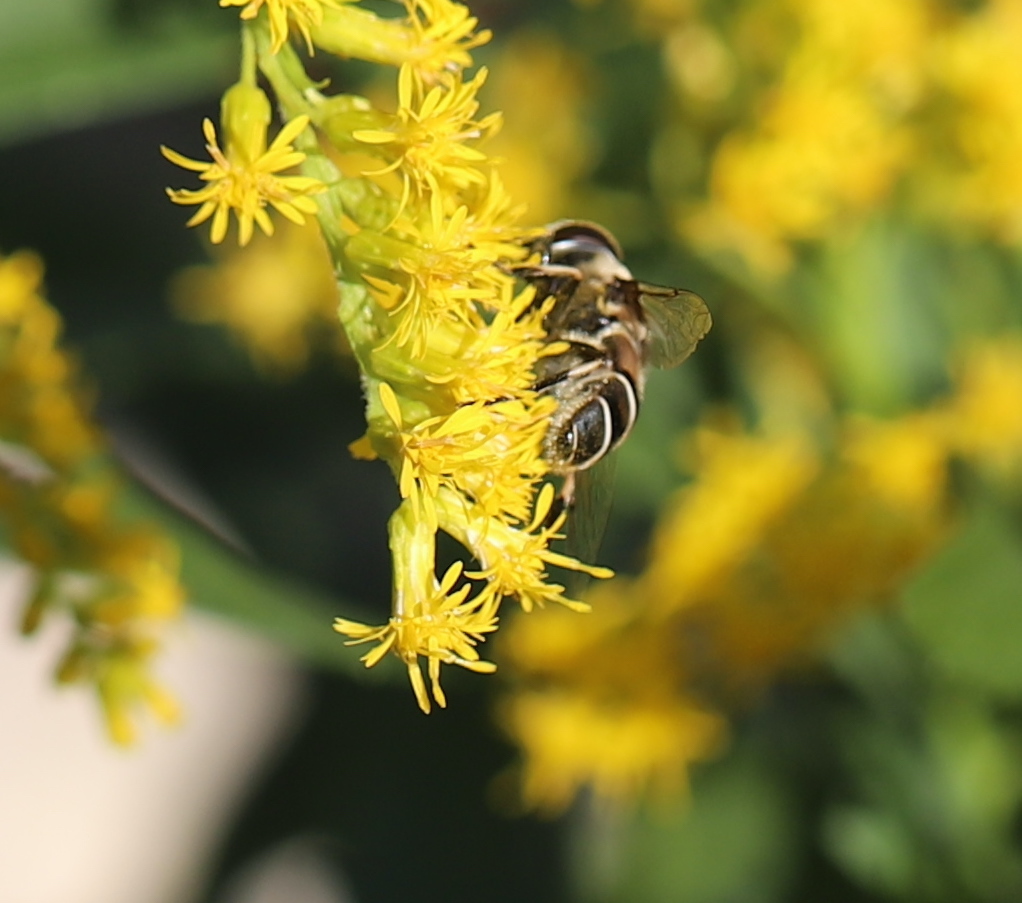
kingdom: Animalia
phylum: Arthropoda
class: Insecta
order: Diptera
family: Syrphidae
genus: Eristalis
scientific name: Eristalis dimidiata
